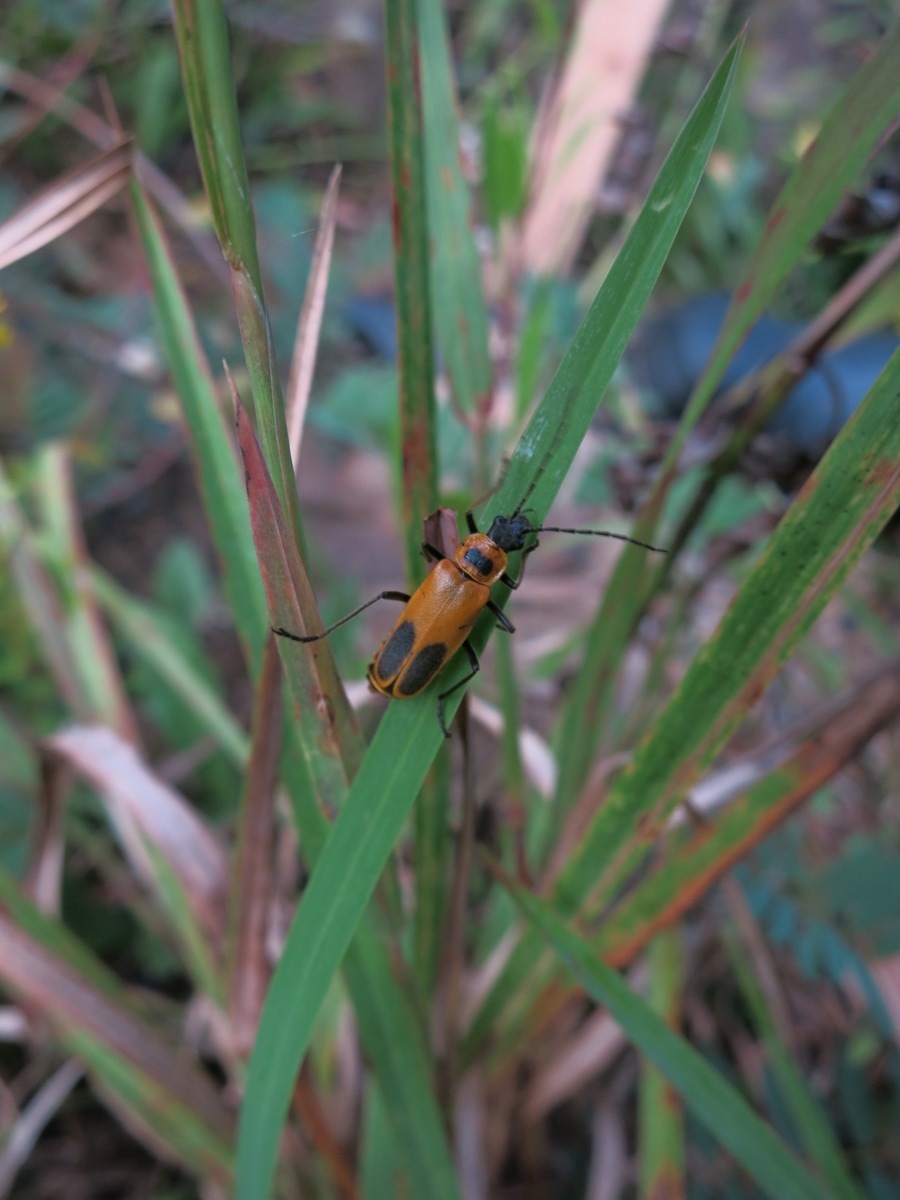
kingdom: Animalia
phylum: Arthropoda
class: Insecta
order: Coleoptera
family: Cantharidae
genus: Chauliognathus
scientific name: Chauliognathus pensylvanicus
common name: Goldenrod soldier beetle
